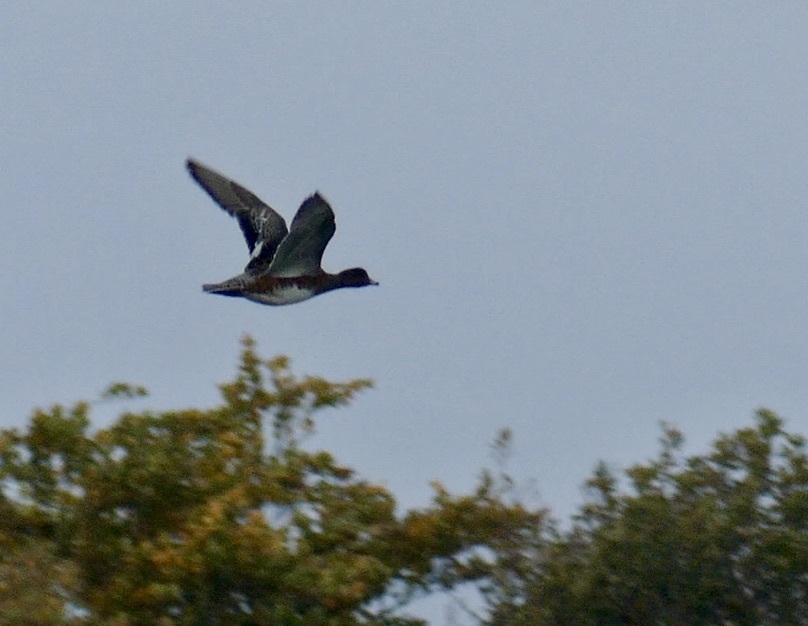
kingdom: Animalia
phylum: Chordata
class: Aves
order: Anseriformes
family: Anatidae
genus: Mareca
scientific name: Mareca penelope
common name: Eurasian wigeon
